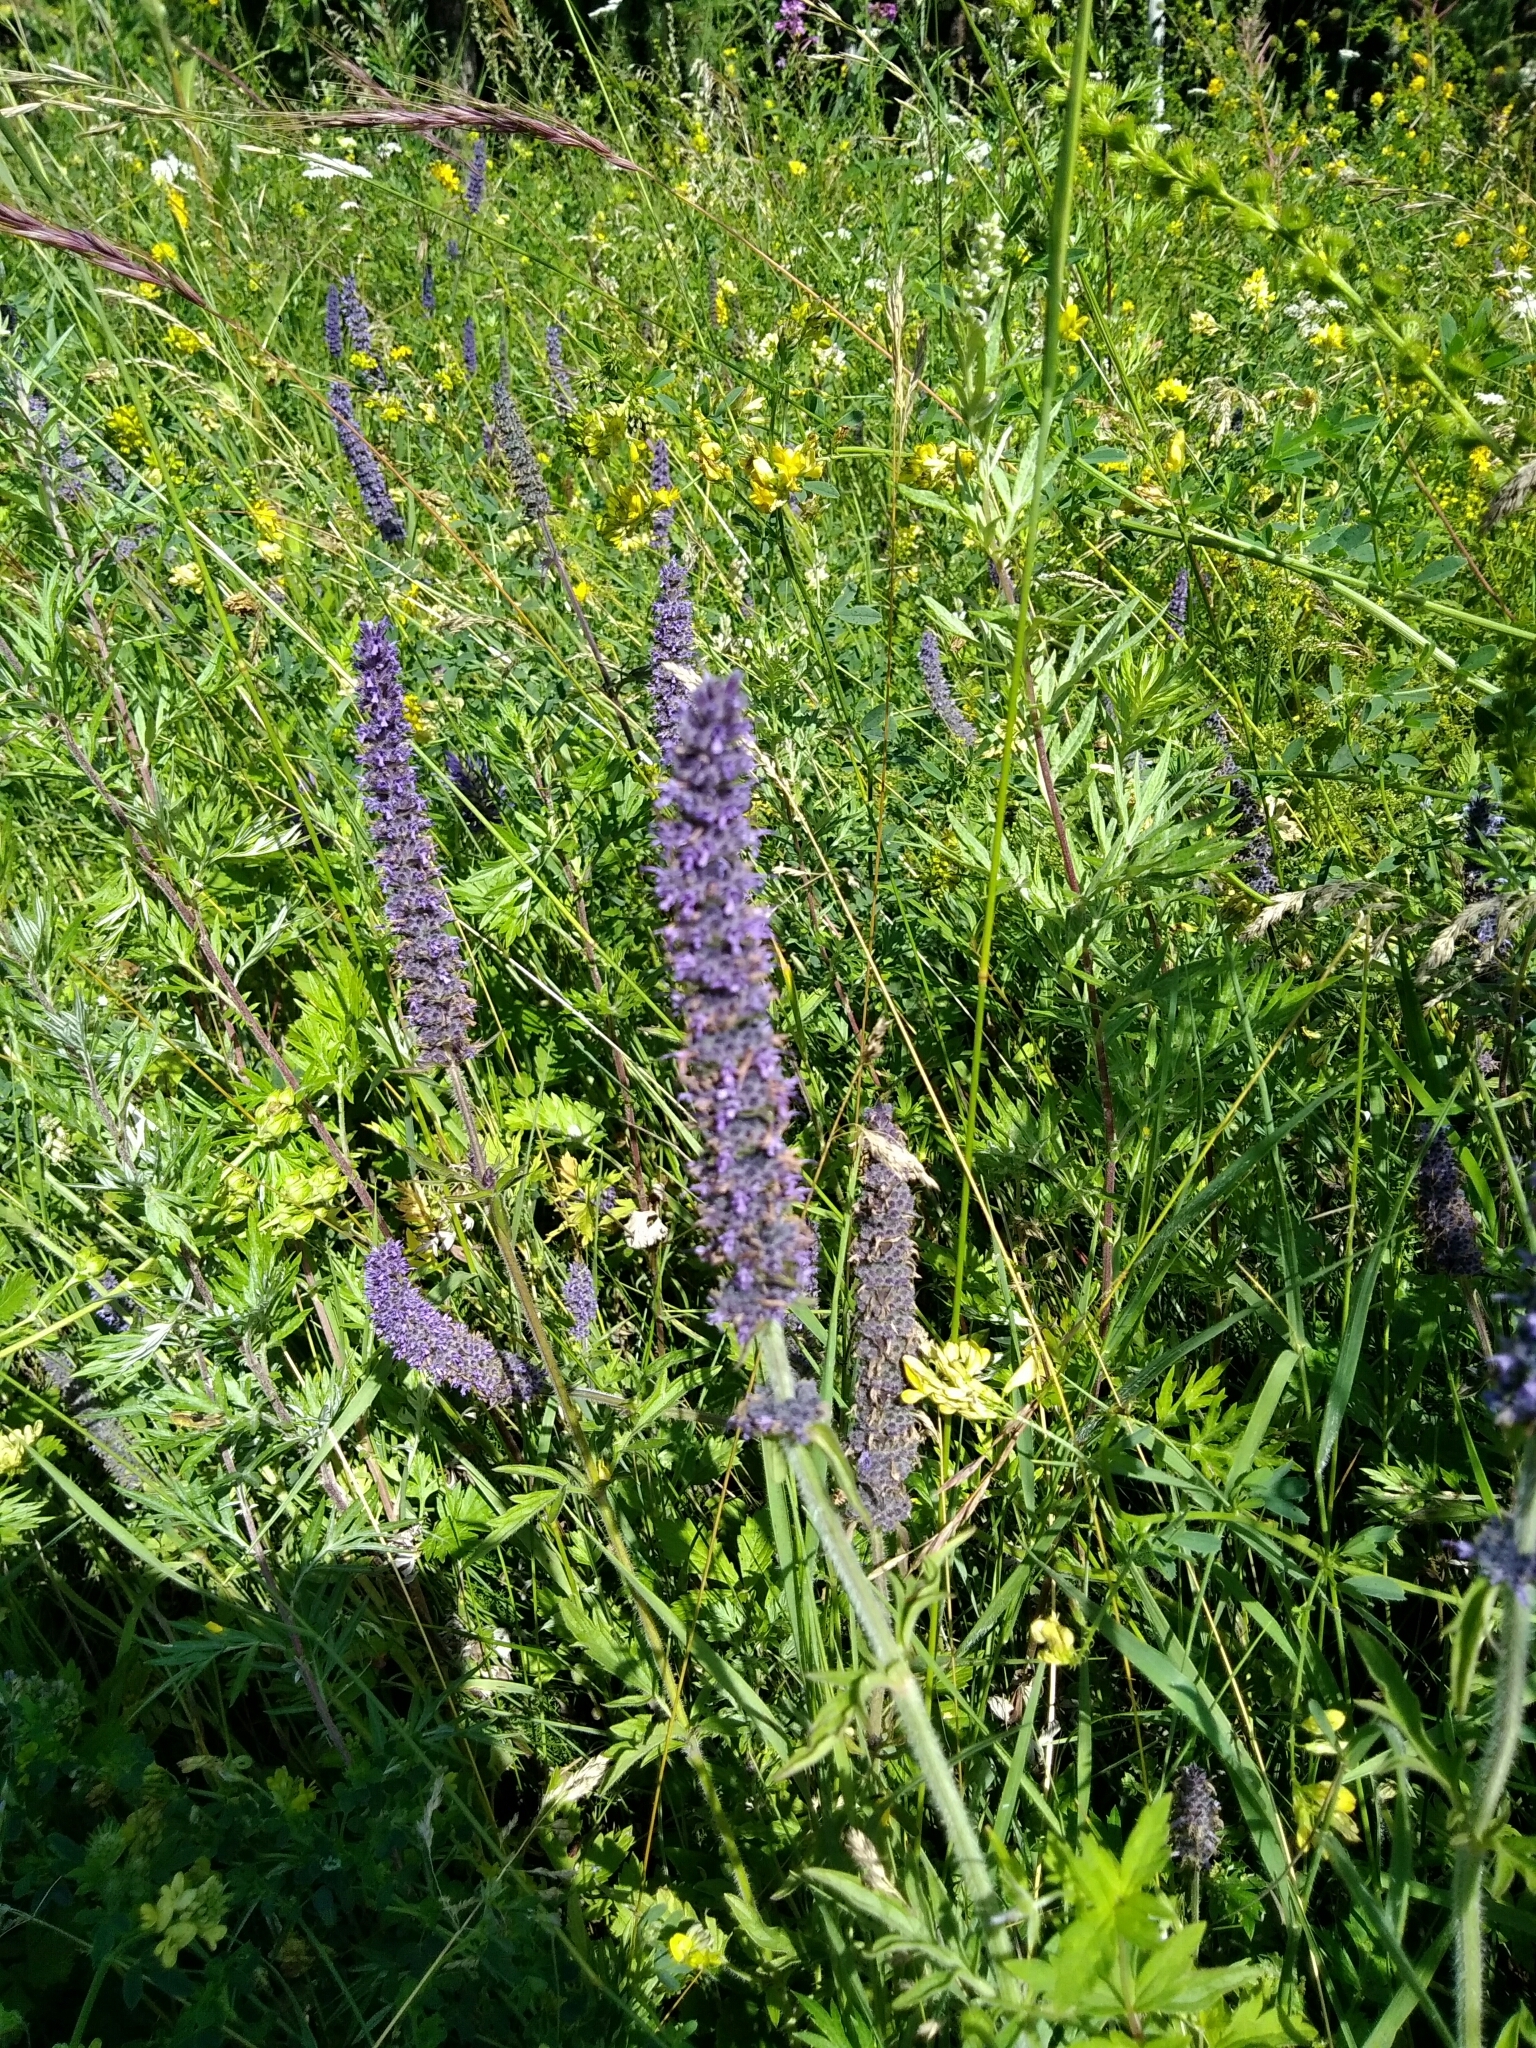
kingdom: Plantae
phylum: Tracheophyta
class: Magnoliopsida
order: Lamiales
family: Lamiaceae
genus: Nepeta
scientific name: Nepeta multifida
